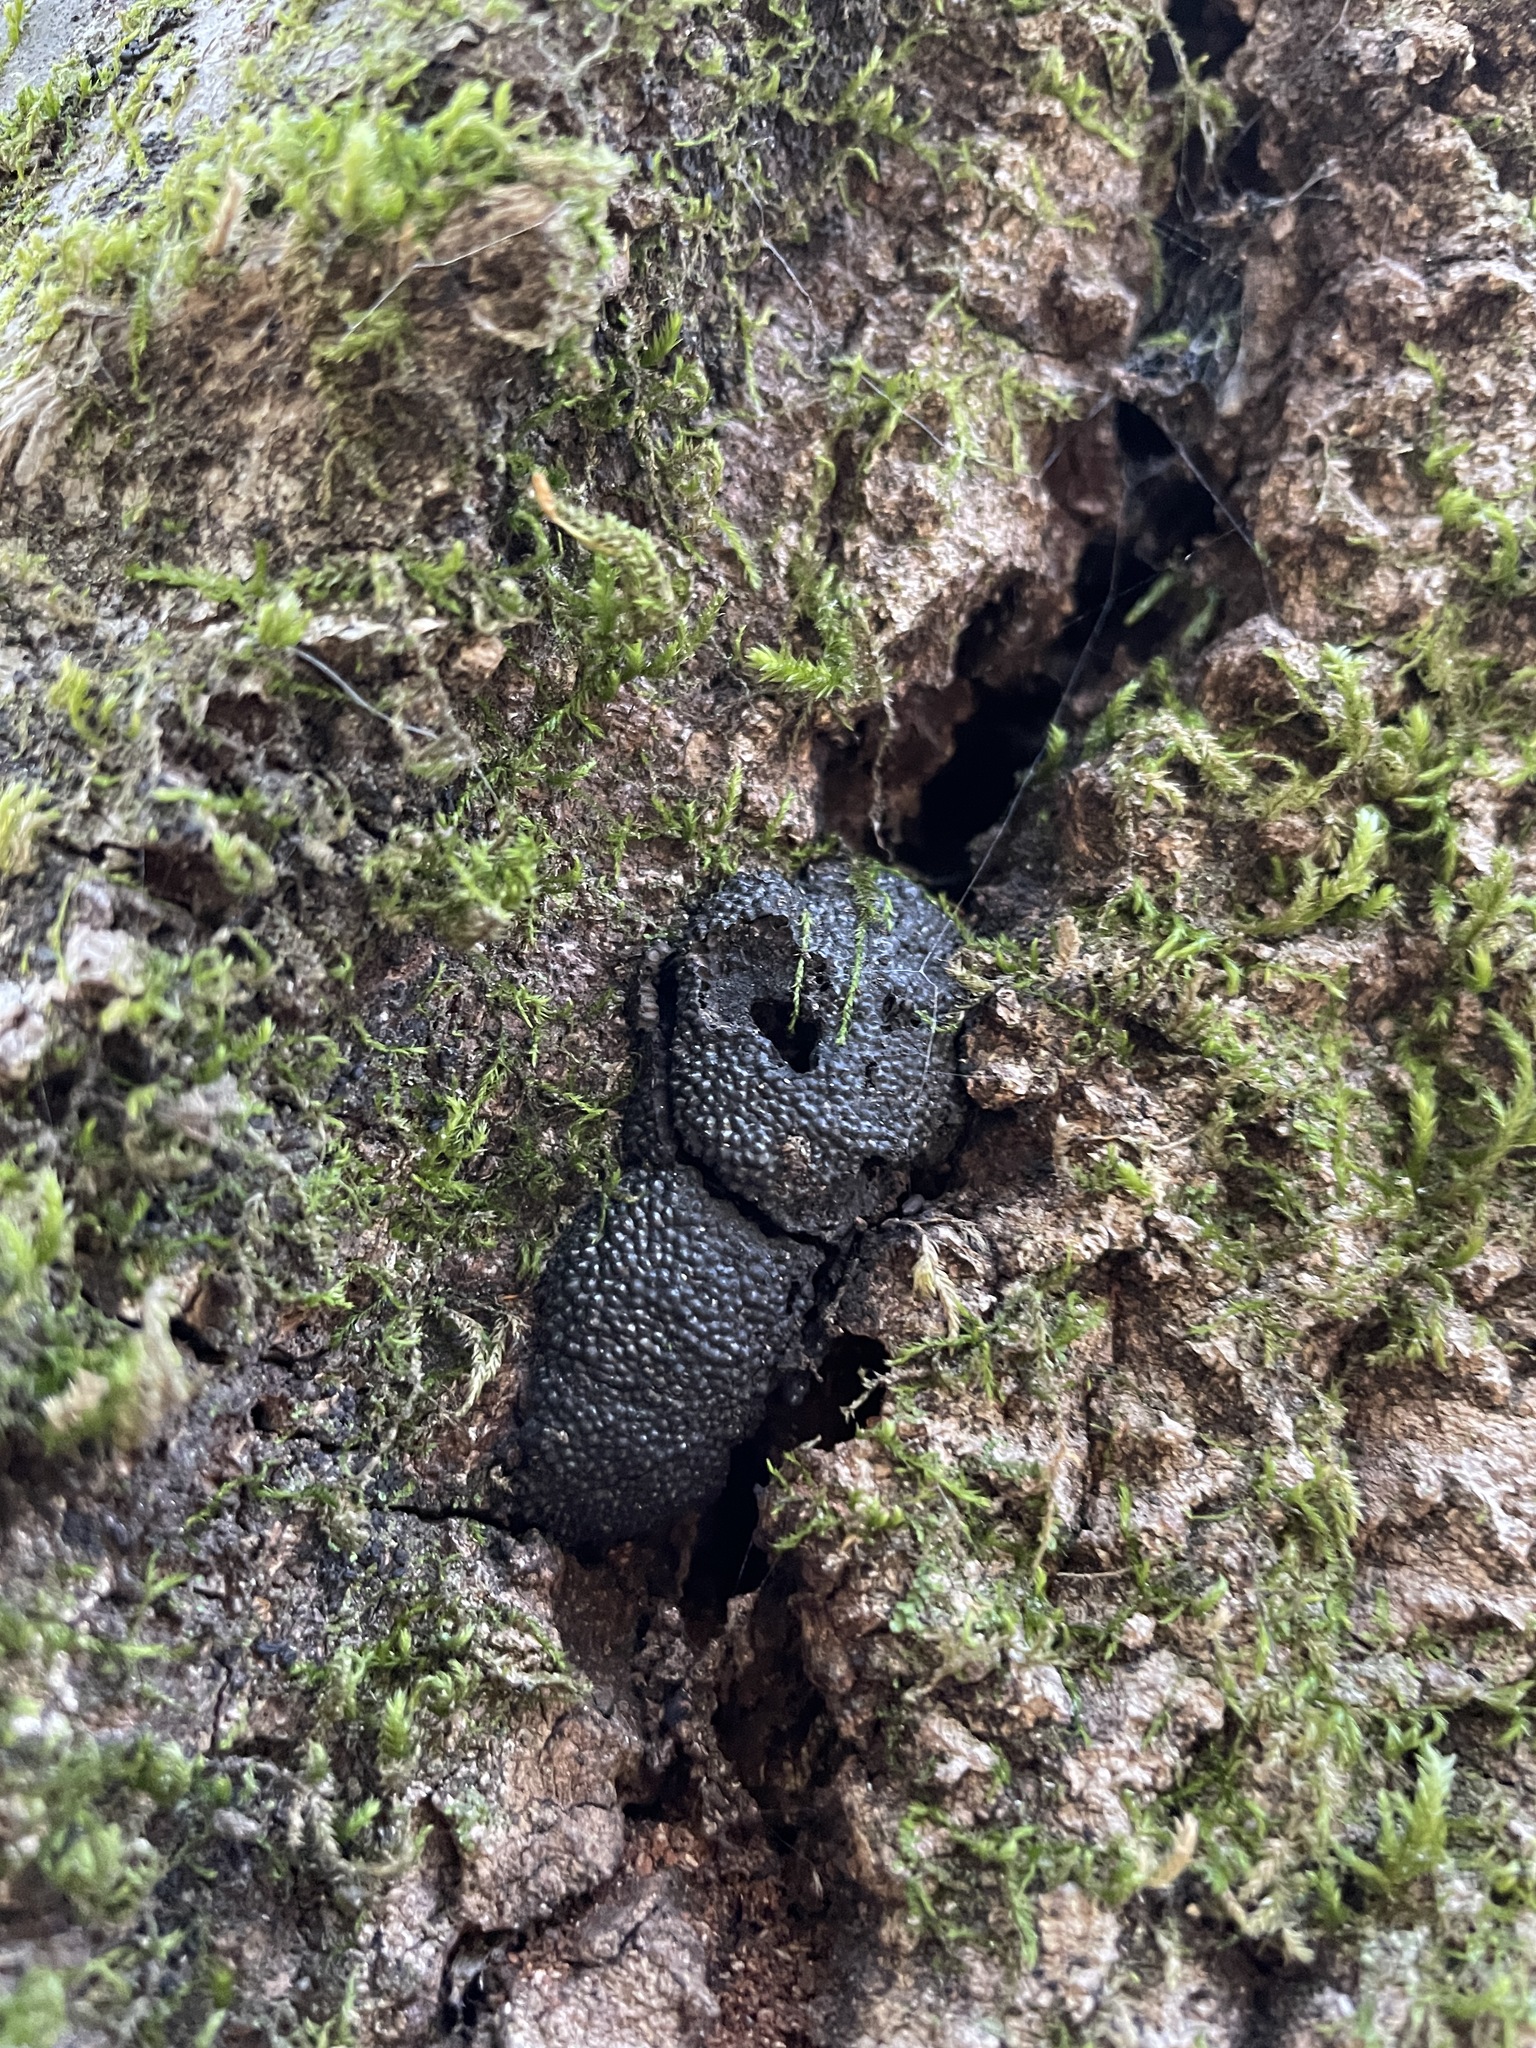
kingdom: Fungi
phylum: Ascomycota
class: Sordariomycetes
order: Xylariales
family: Hypoxylaceae
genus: Annulohypoxylon
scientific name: Annulohypoxylon thouarsianum
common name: Cramp balls
